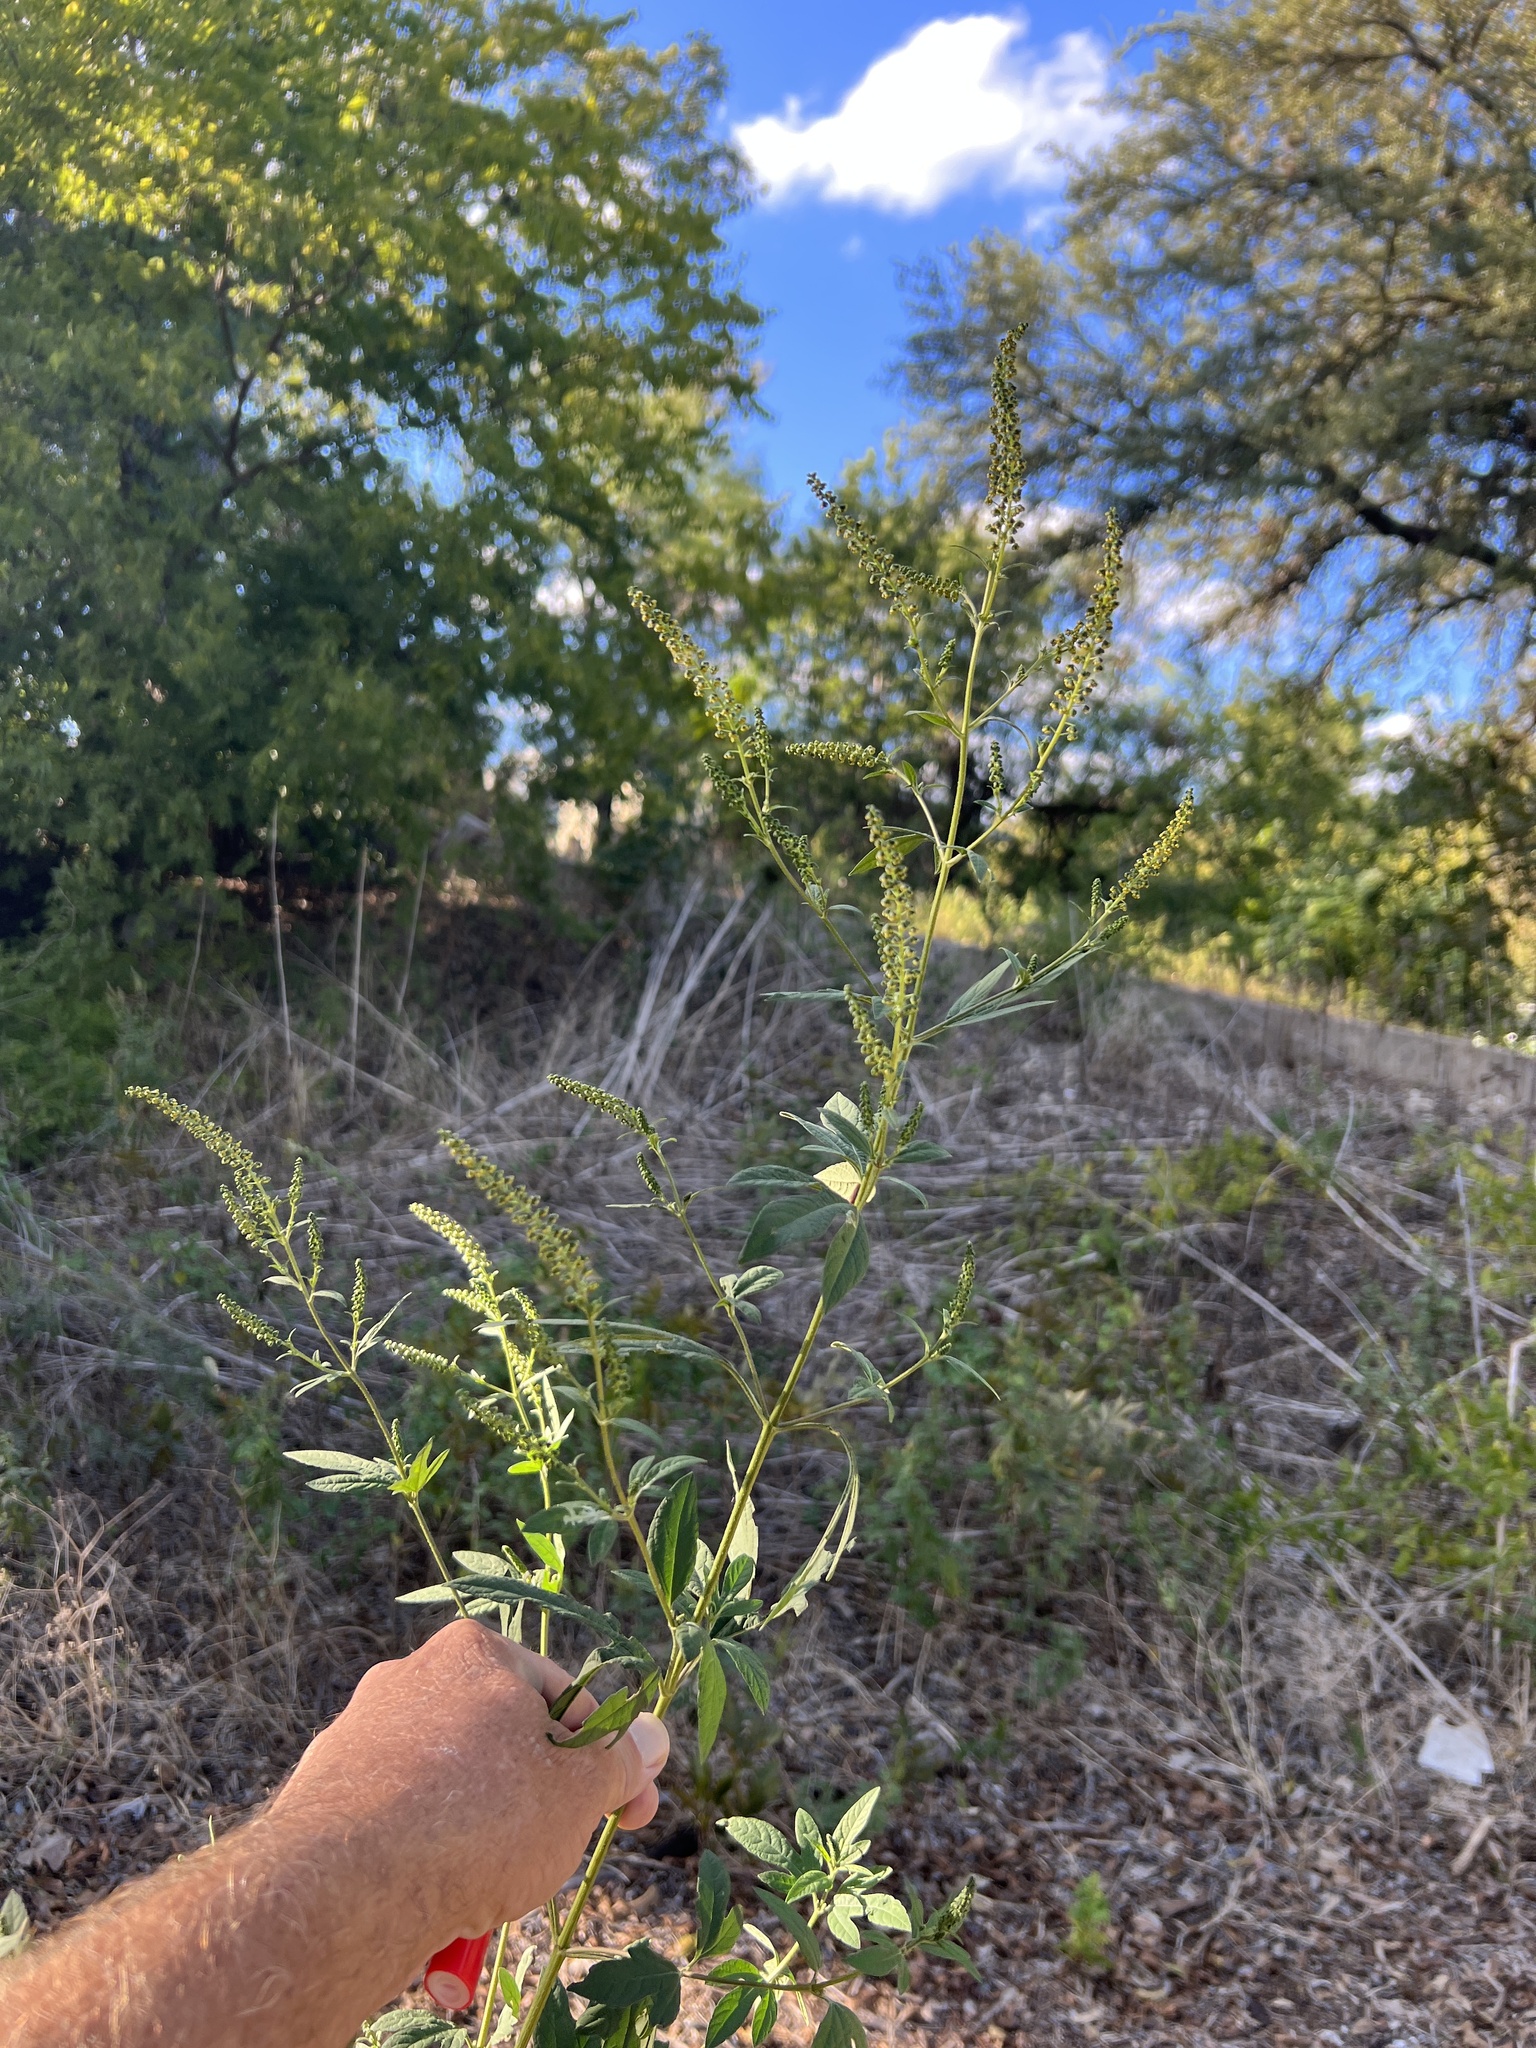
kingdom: Plantae
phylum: Tracheophyta
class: Magnoliopsida
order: Asterales
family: Asteraceae
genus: Ambrosia
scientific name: Ambrosia trifida
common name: Giant ragweed
